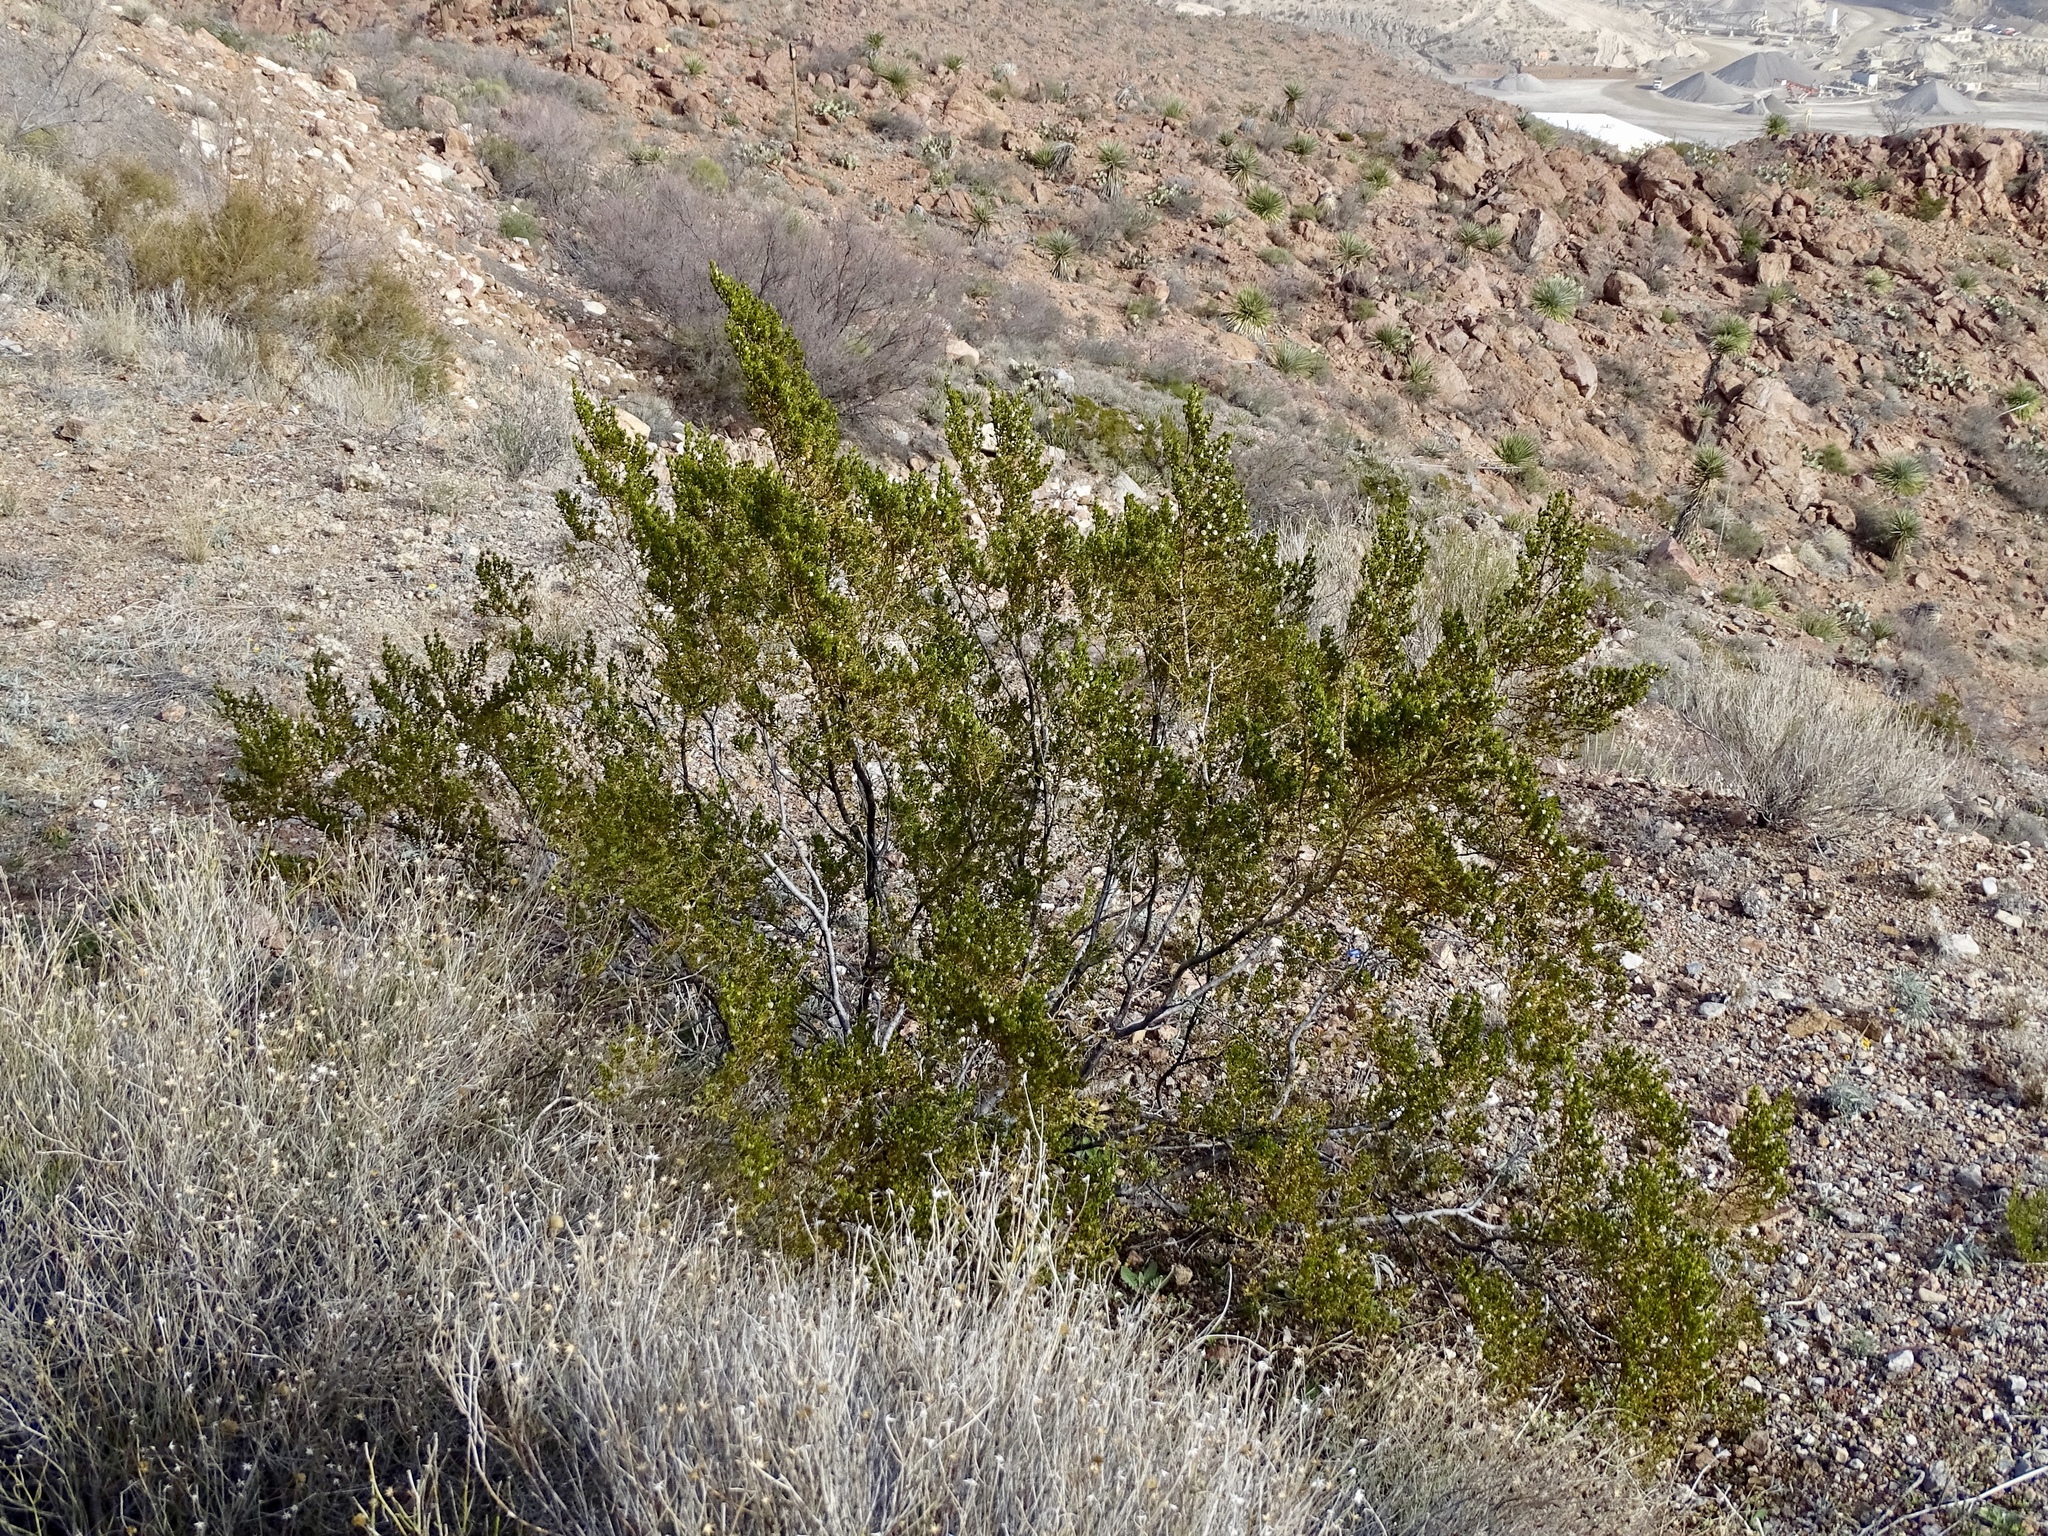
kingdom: Plantae
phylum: Tracheophyta
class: Magnoliopsida
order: Zygophyllales
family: Zygophyllaceae
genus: Larrea
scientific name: Larrea tridentata
